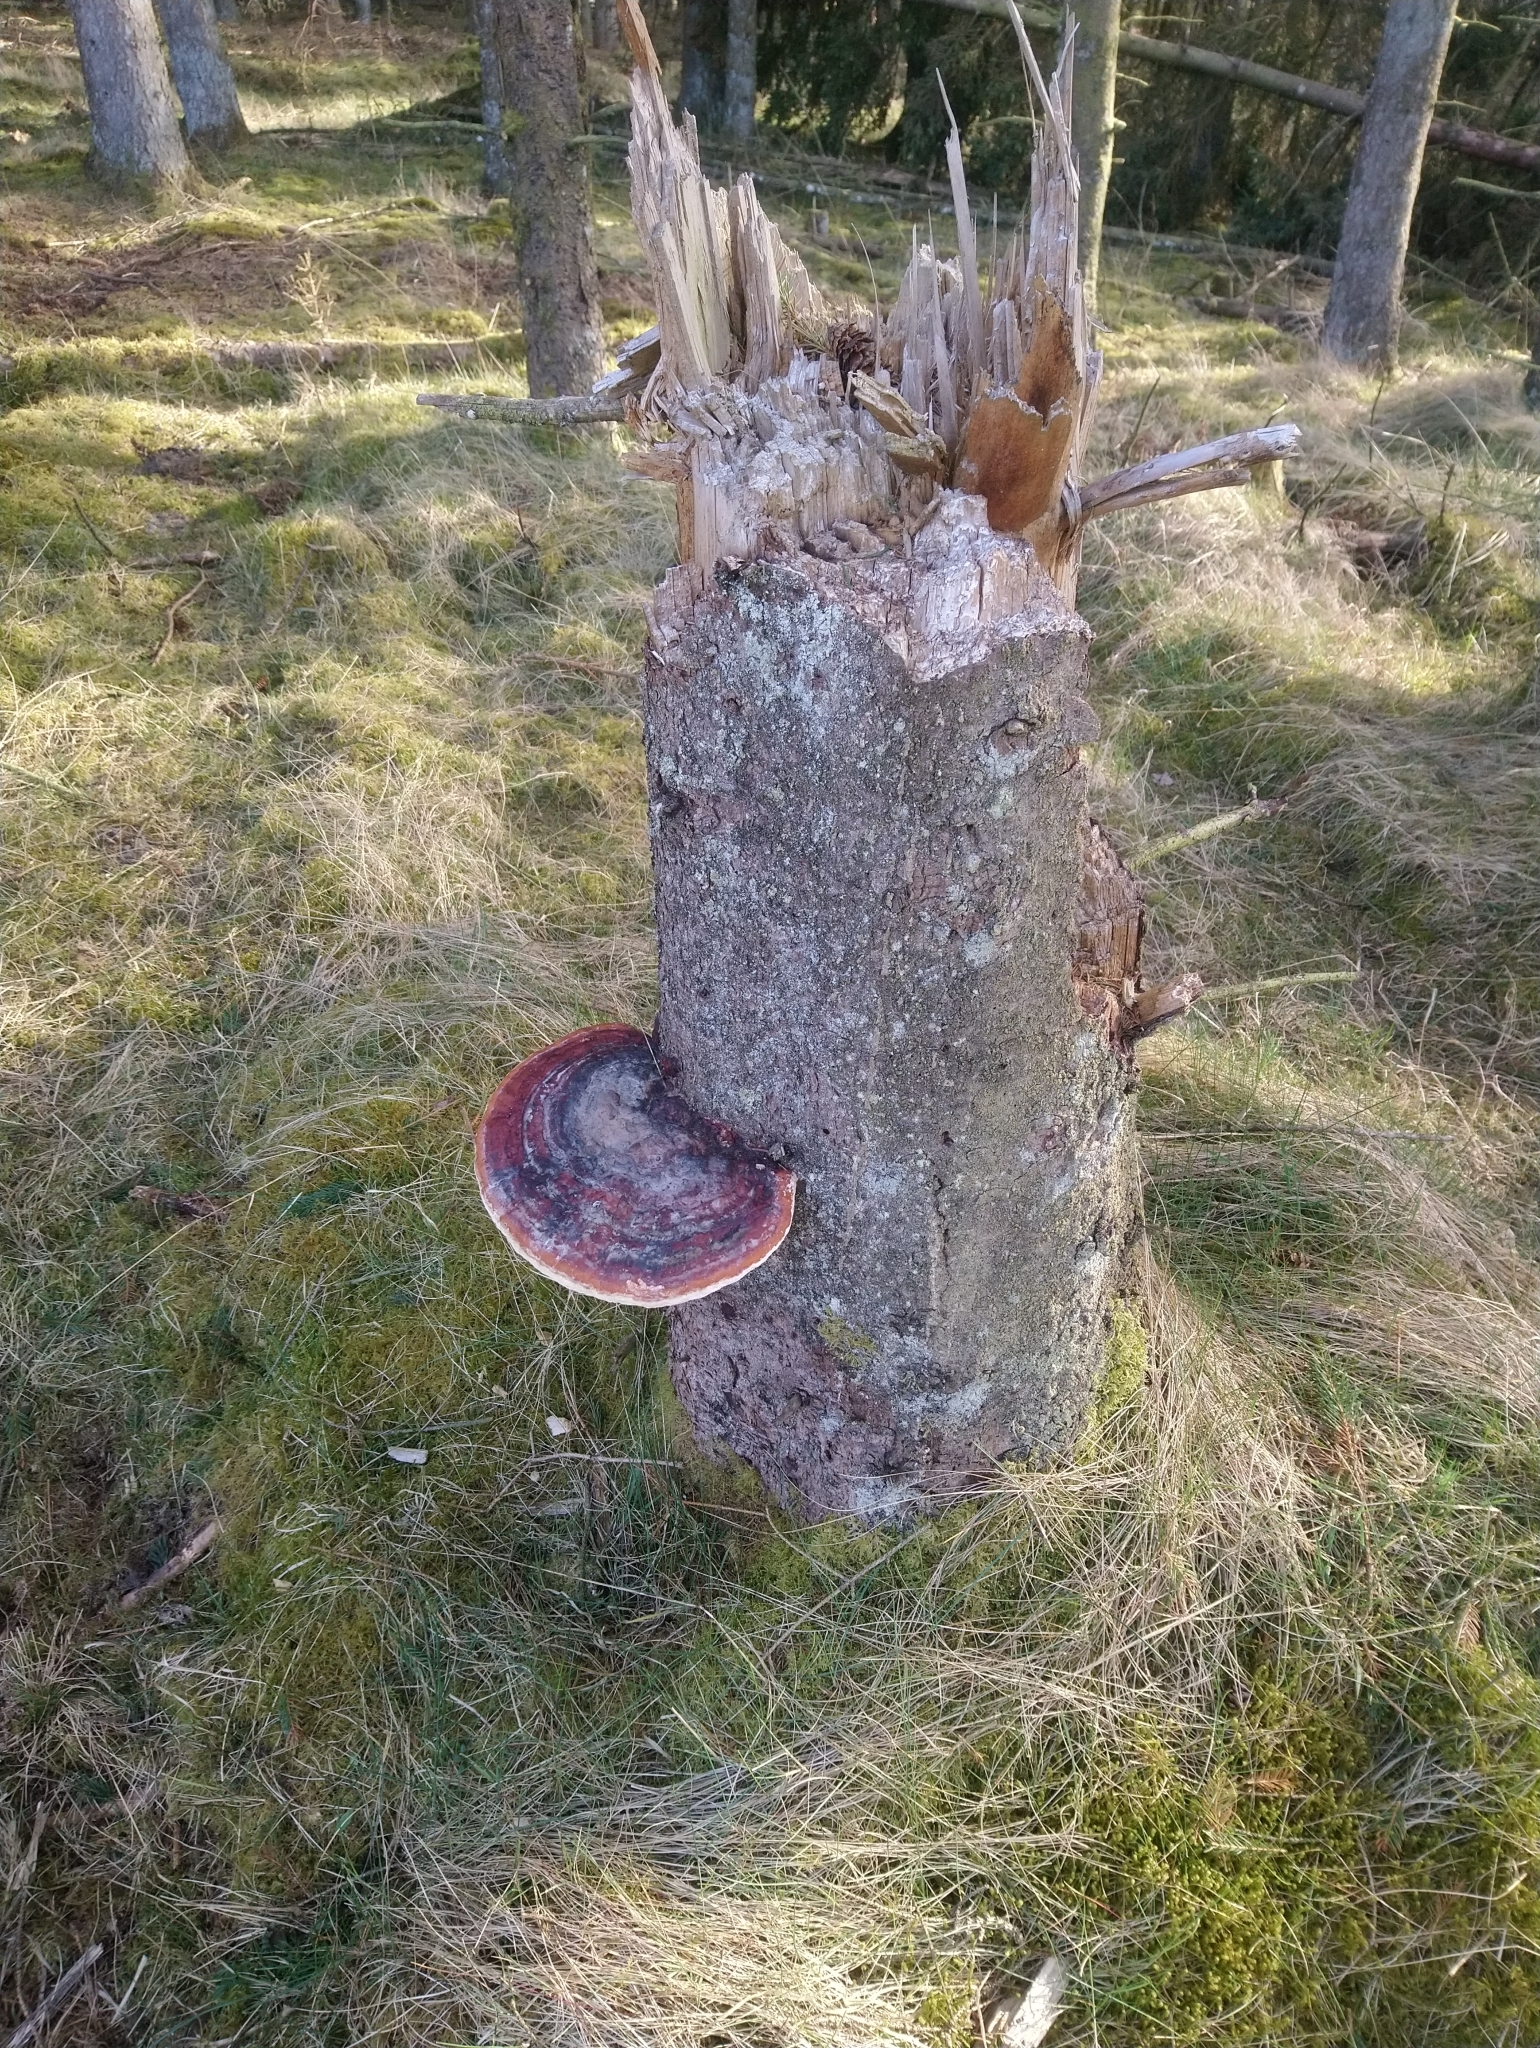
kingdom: Fungi
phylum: Basidiomycota
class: Agaricomycetes
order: Polyporales
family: Fomitopsidaceae
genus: Fomitopsis
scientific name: Fomitopsis pinicola
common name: Red-belted bracket
